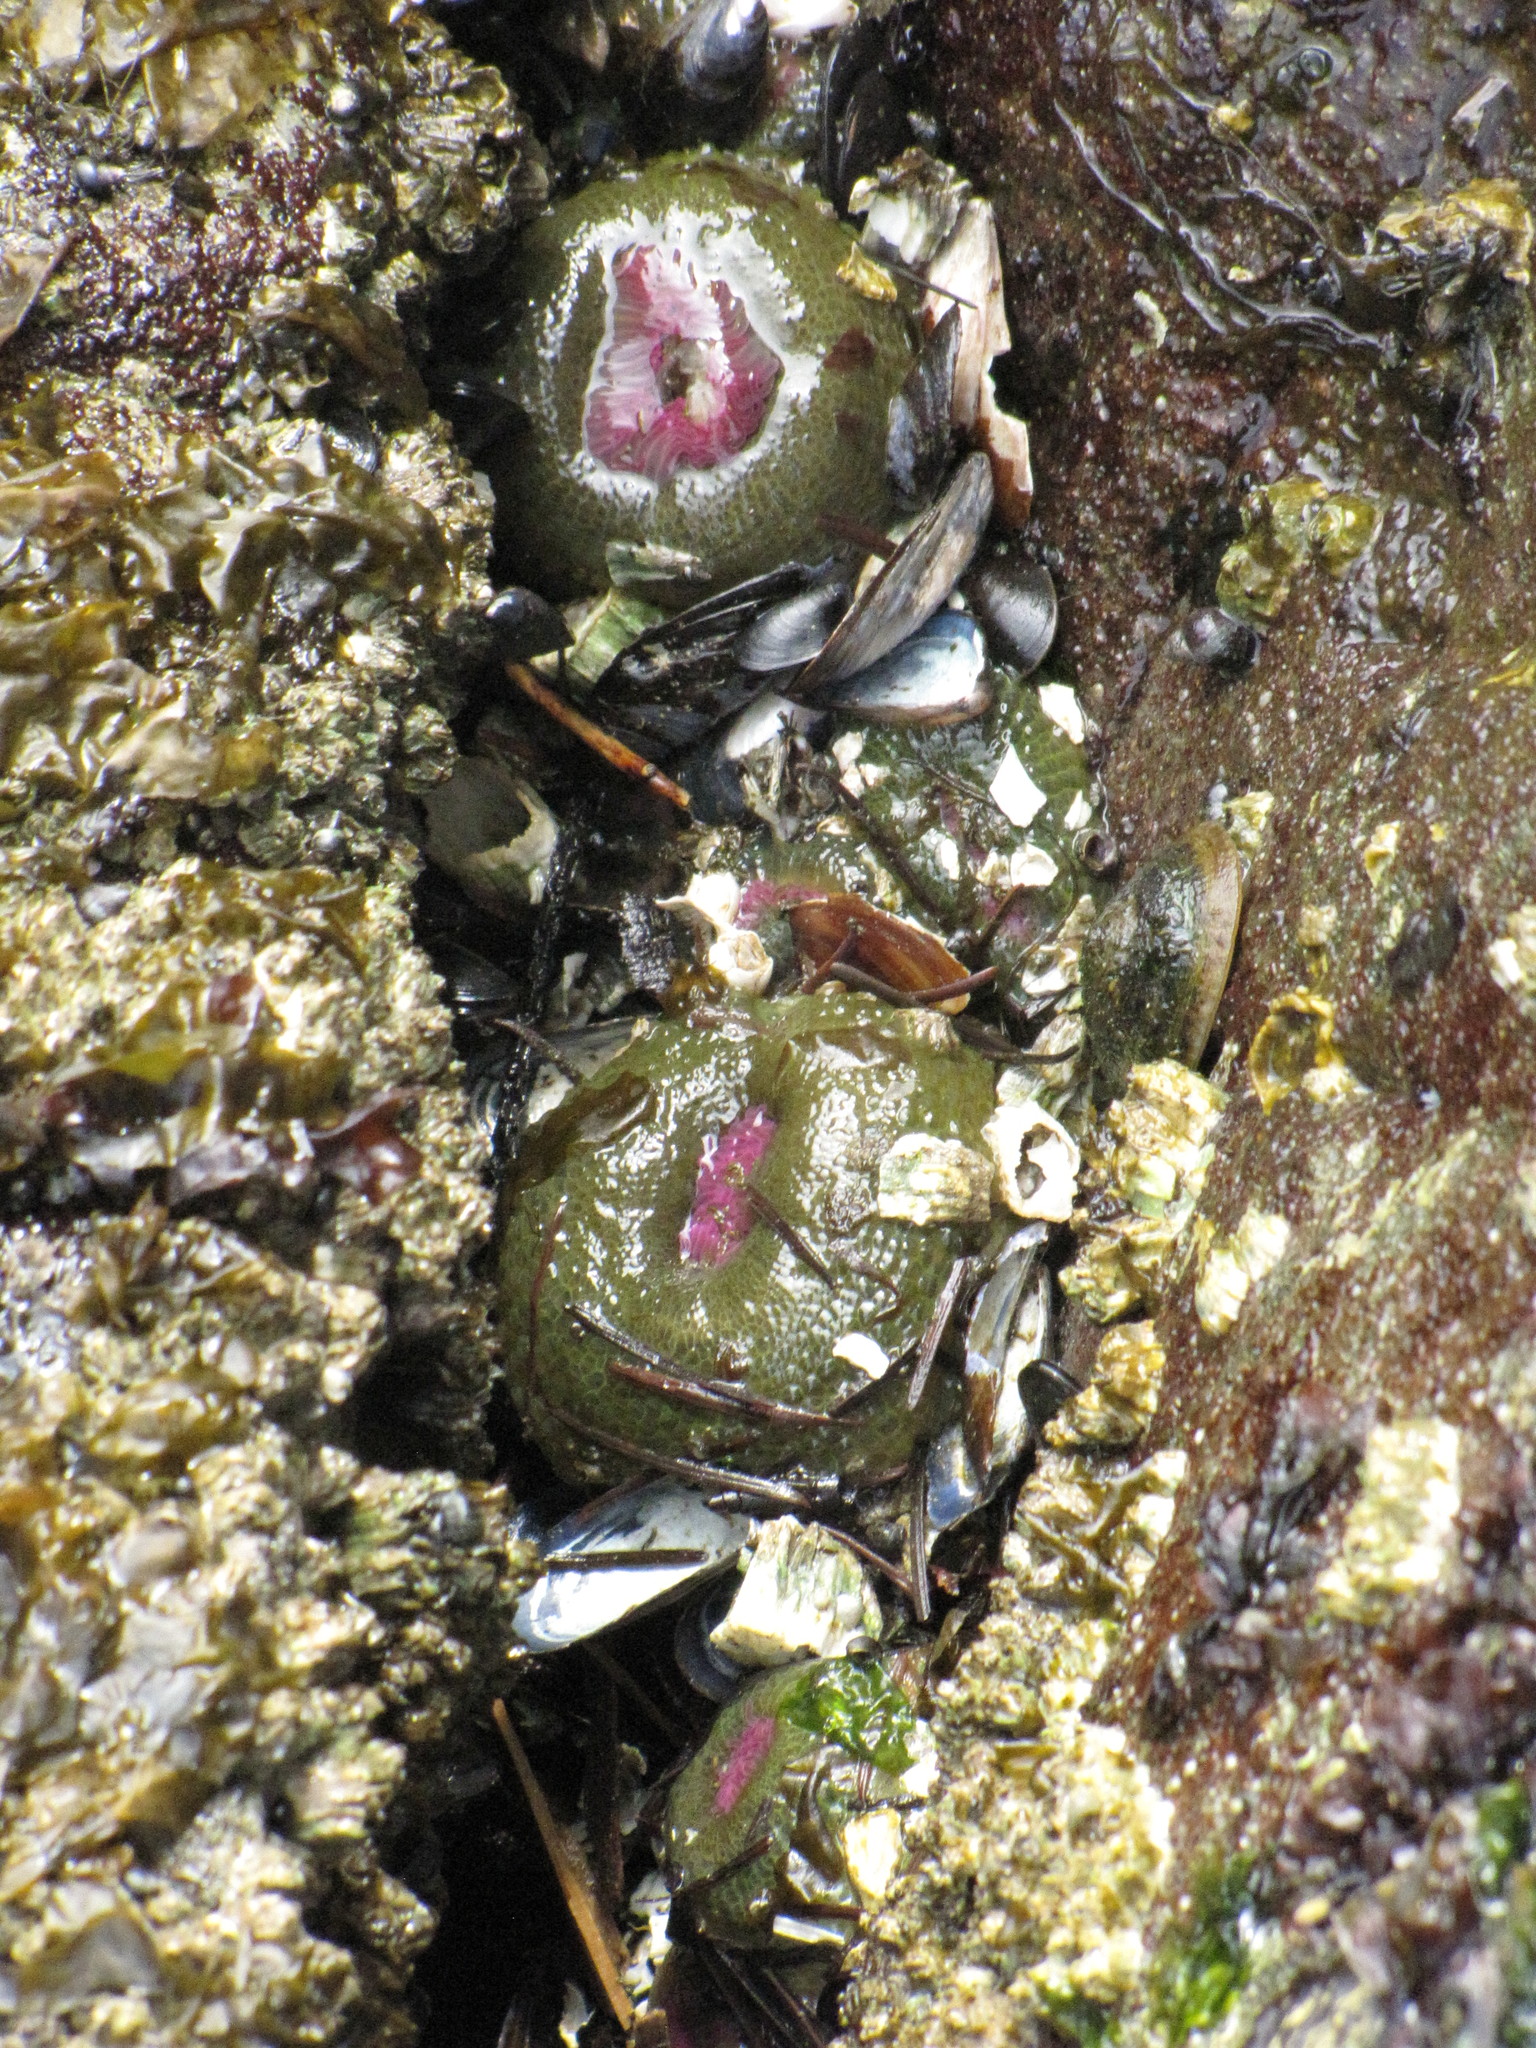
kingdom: Animalia
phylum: Cnidaria
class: Anthozoa
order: Actiniaria
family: Actiniidae
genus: Anthopleura
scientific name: Anthopleura elegantissima
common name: Clonal anemone
